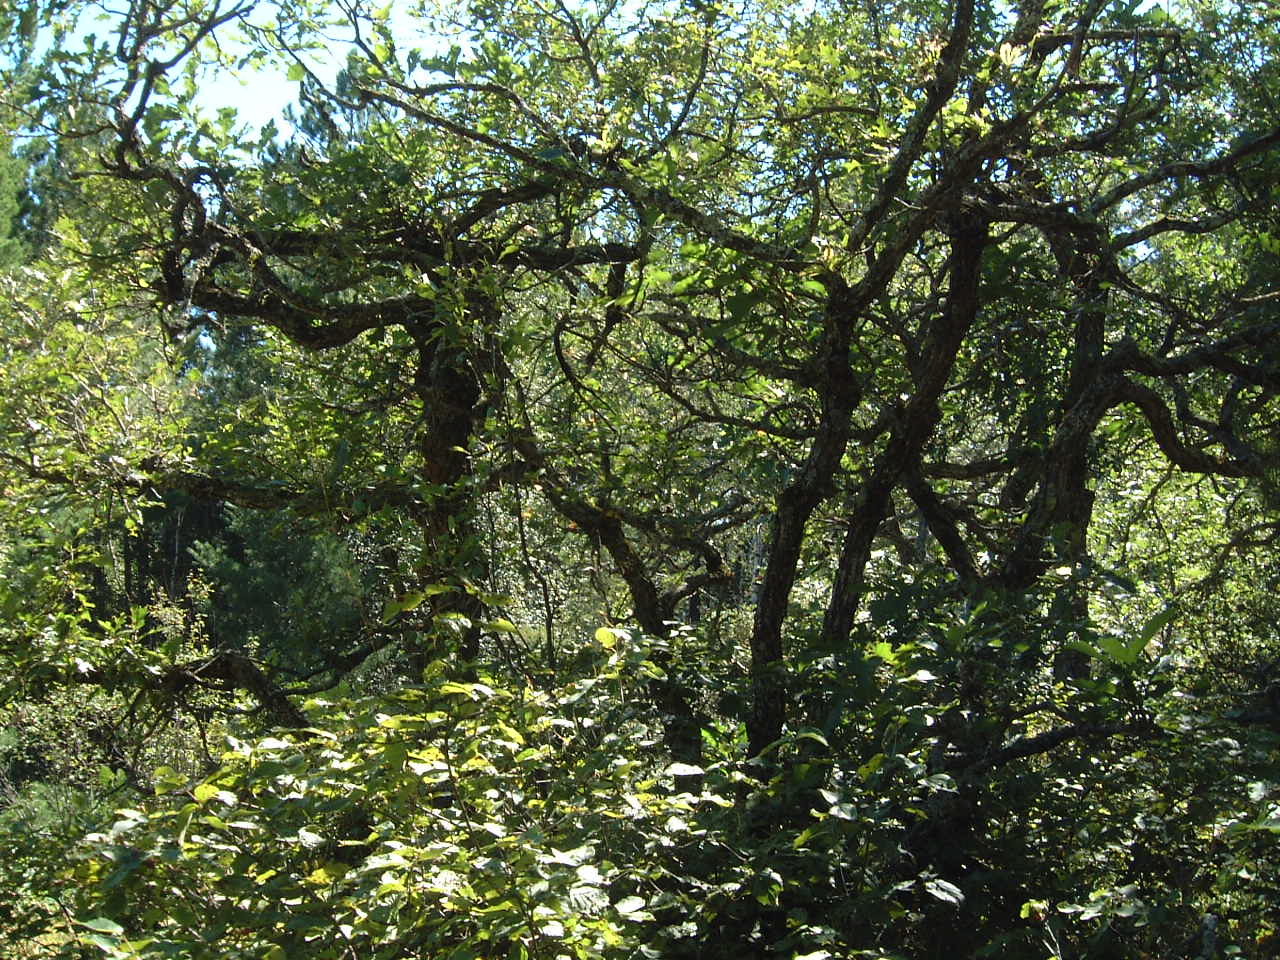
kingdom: Plantae
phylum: Tracheophyta
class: Magnoliopsida
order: Fagales
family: Fagaceae
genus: Quercus
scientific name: Quercus macrocarpa
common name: Bur oak
